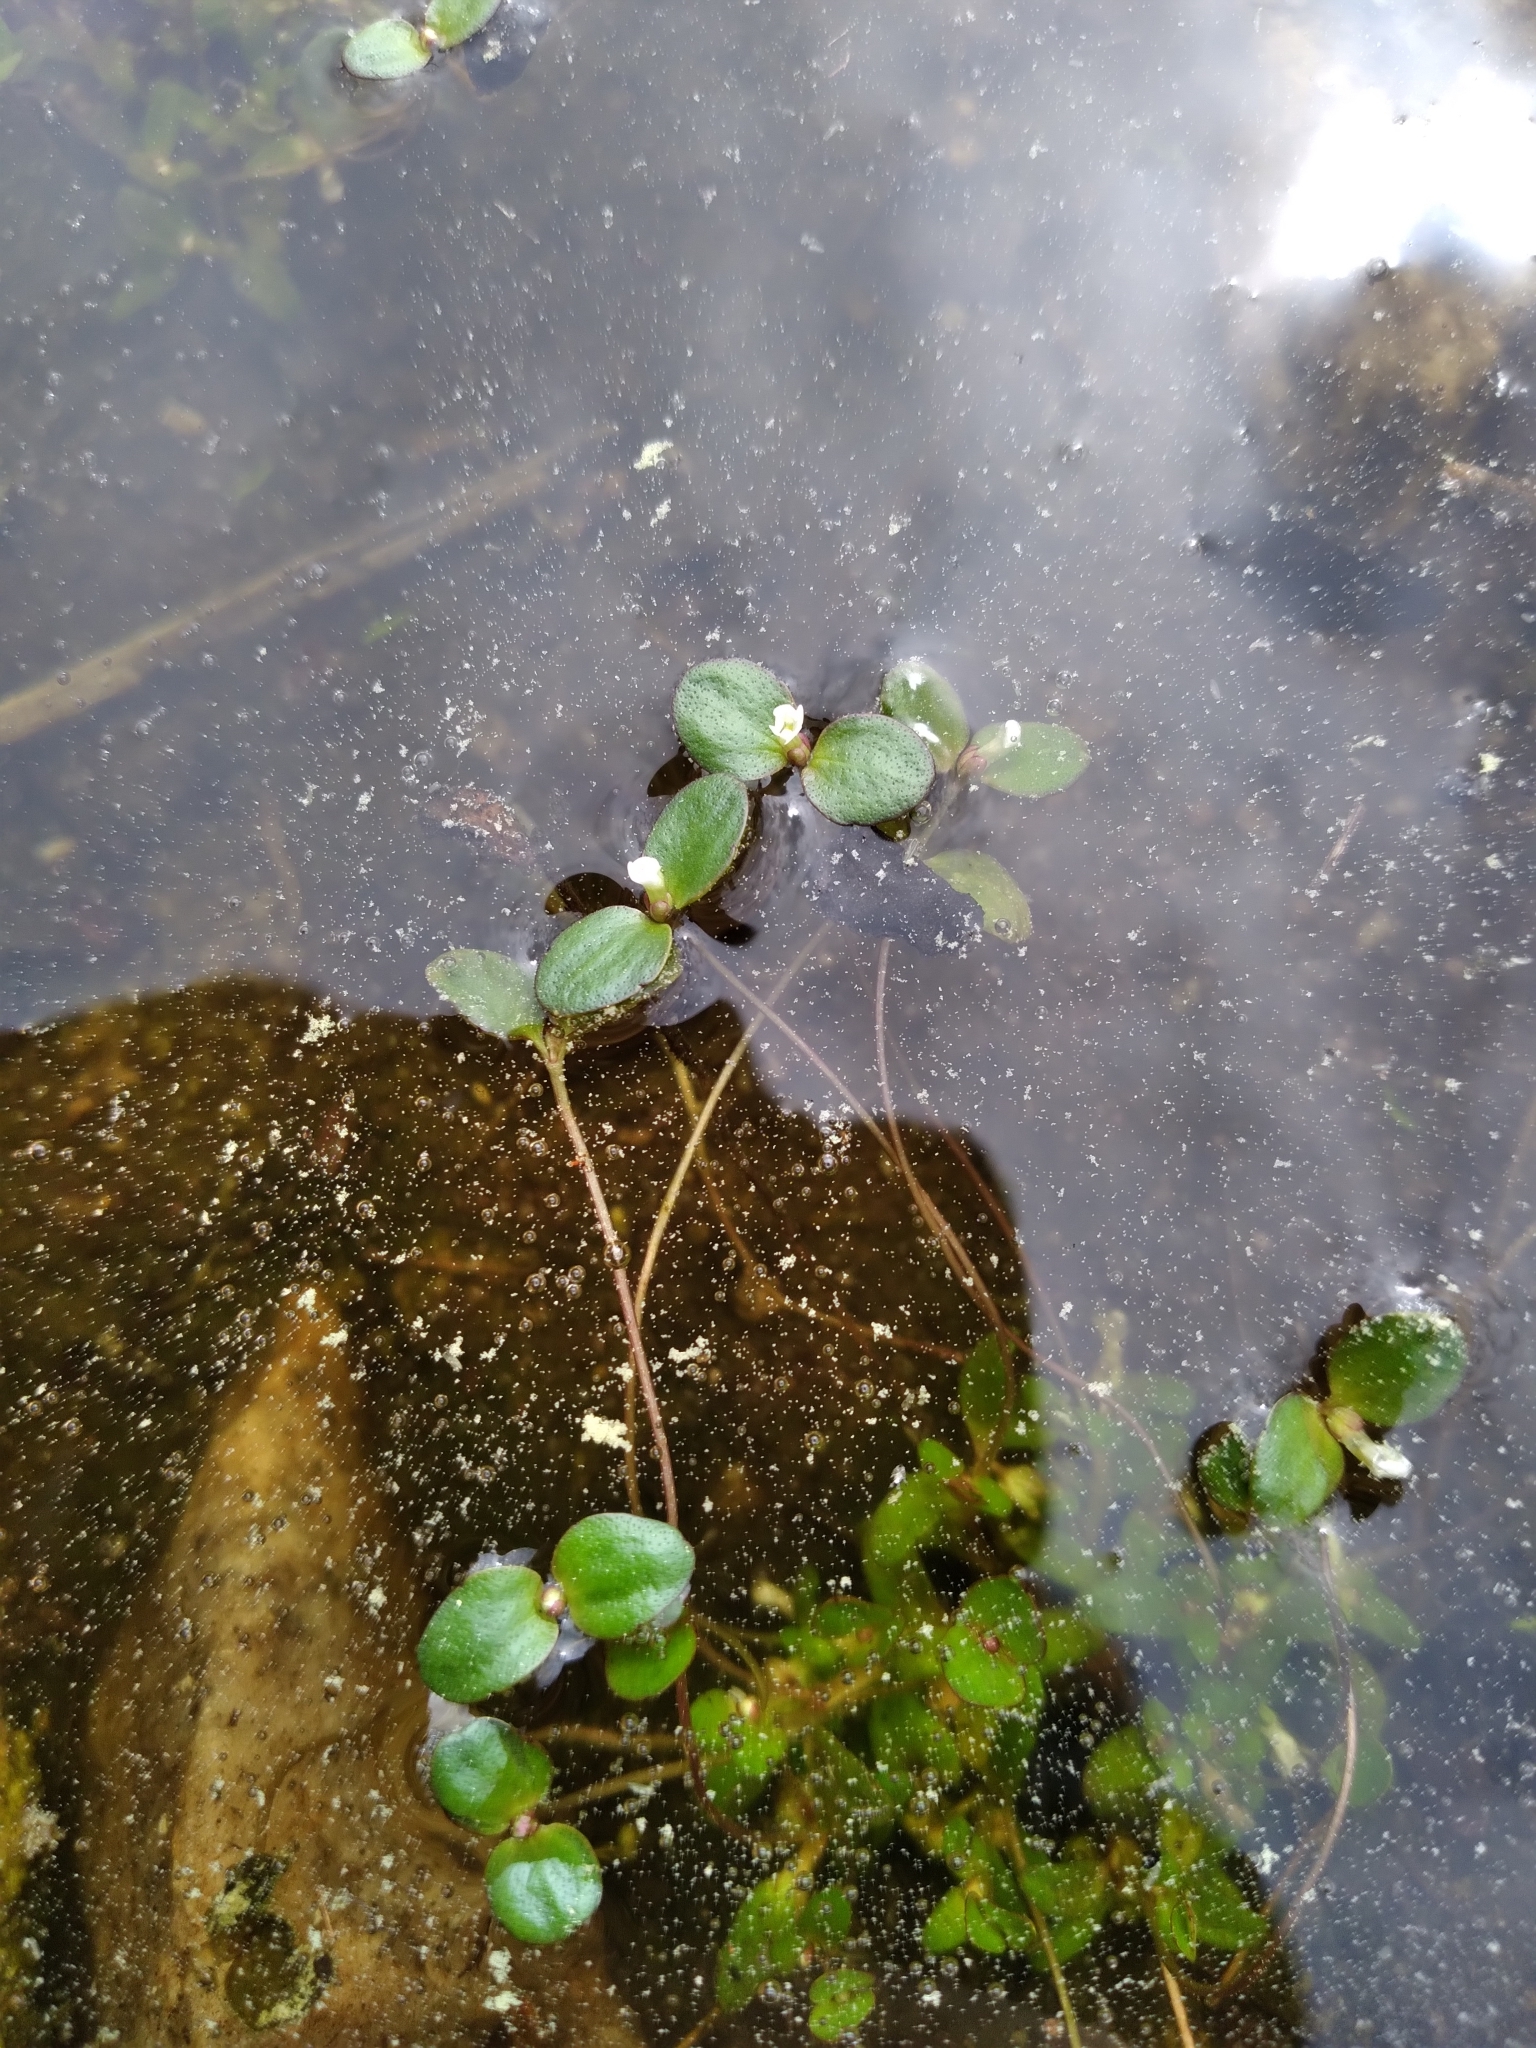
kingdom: Plantae
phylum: Tracheophyta
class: Magnoliopsida
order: Lamiales
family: Plantaginaceae
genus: Gratiola
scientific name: Gratiola amphiantha
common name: Little amphianthus
